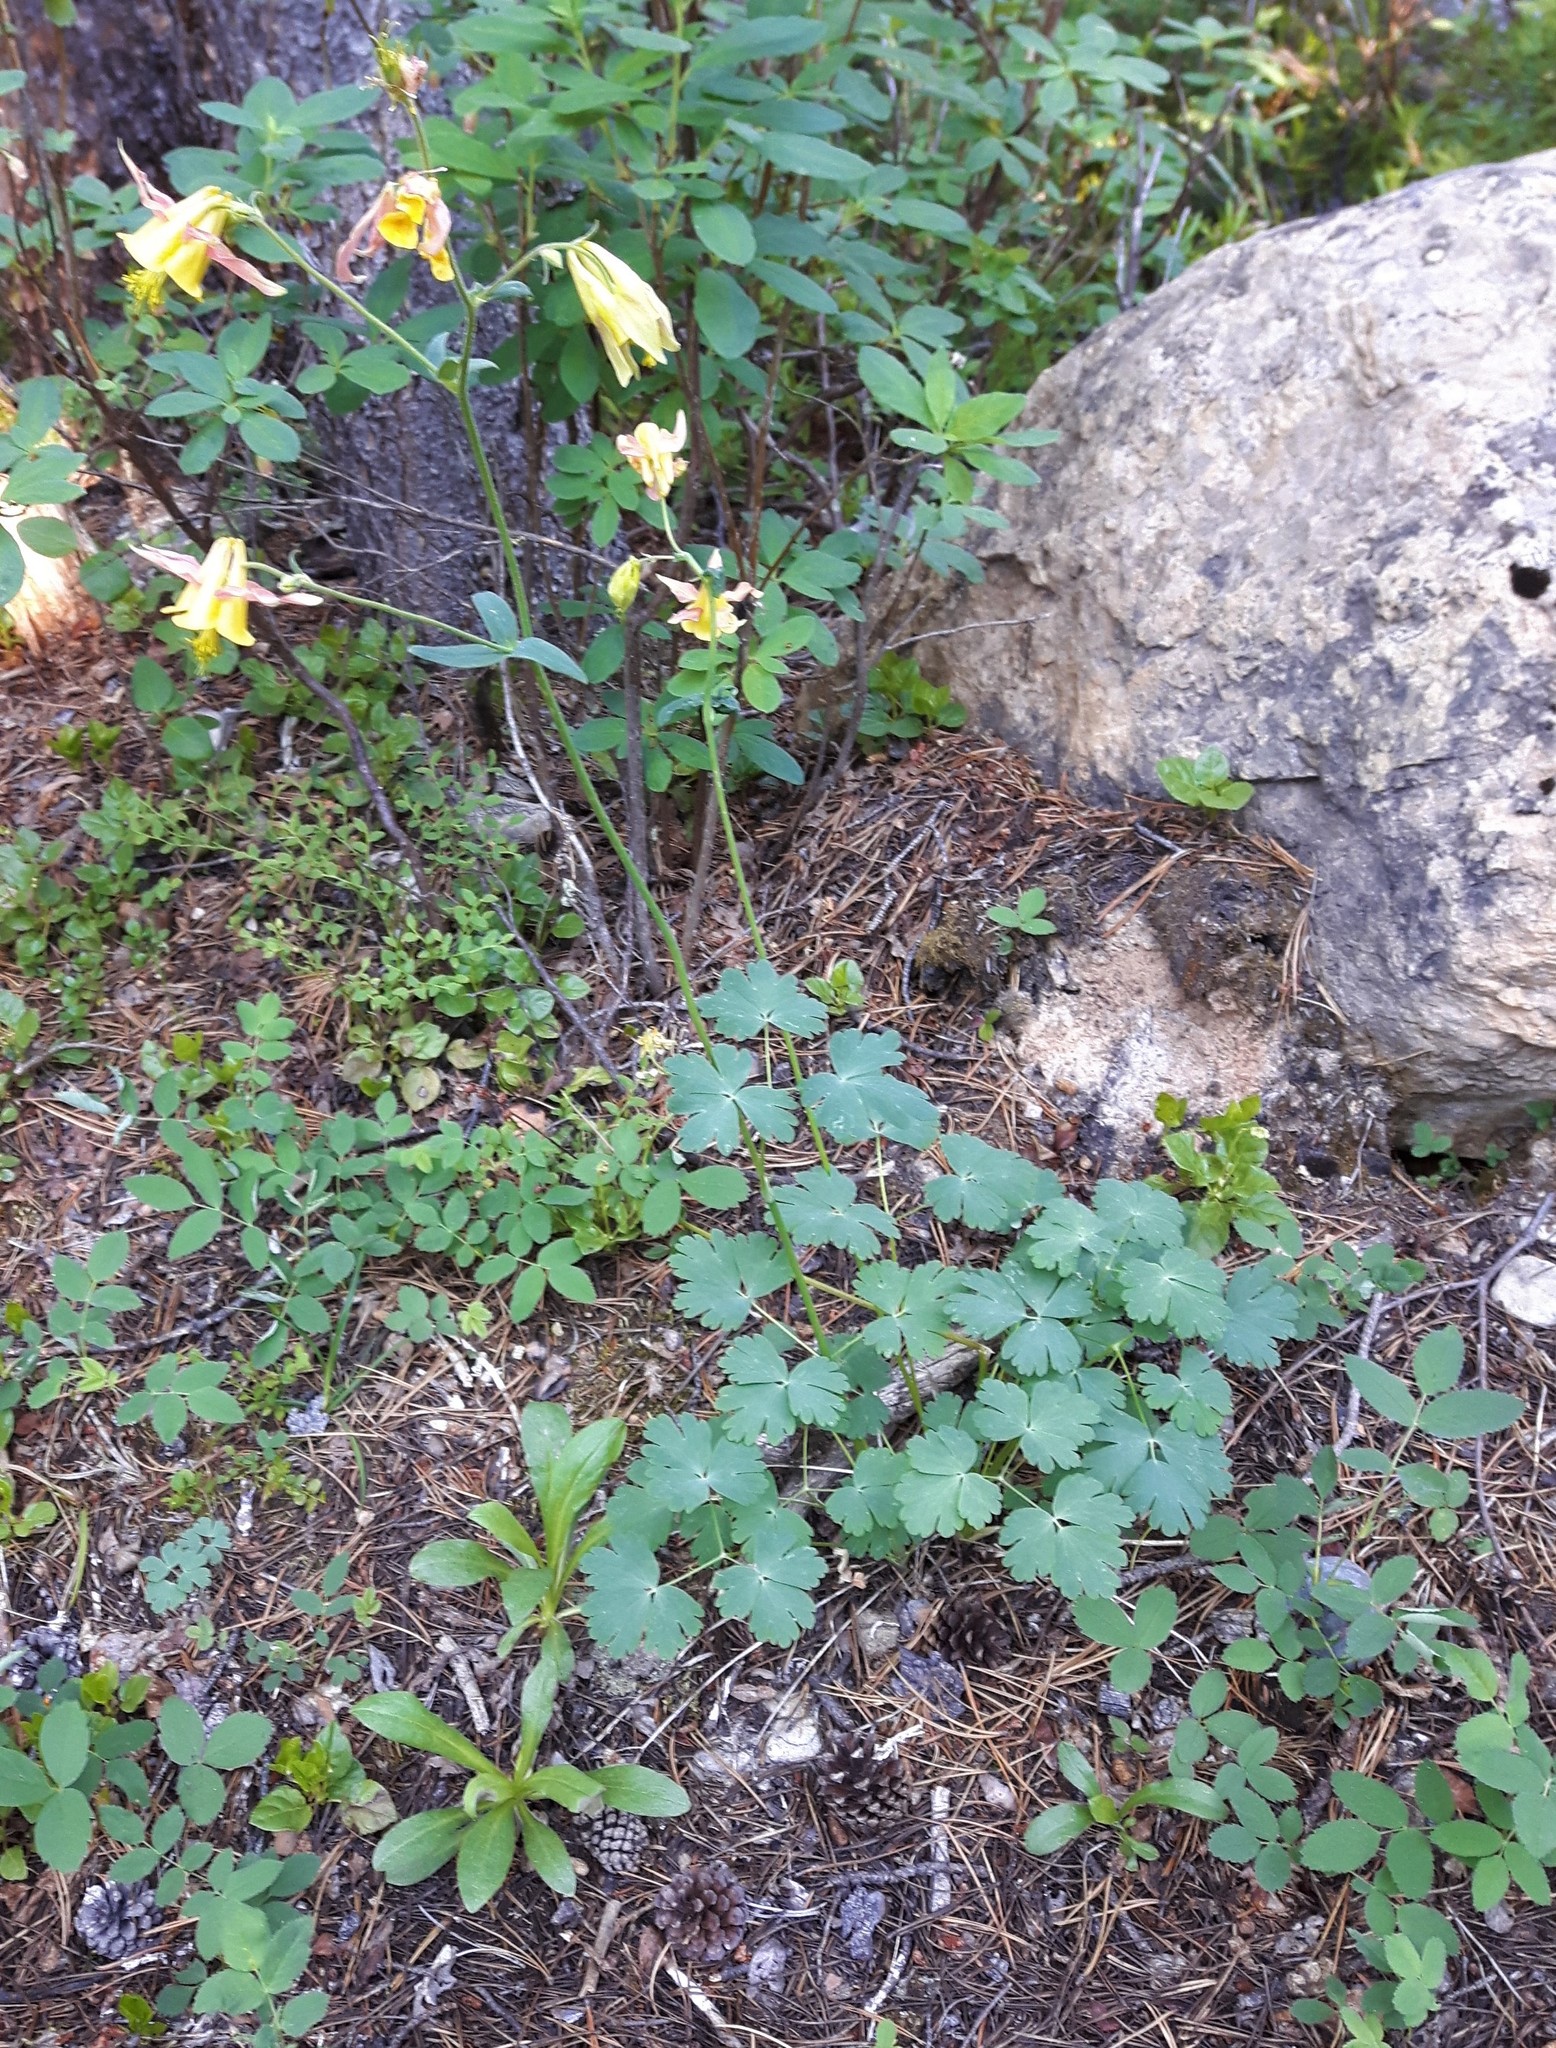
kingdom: Plantae
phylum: Tracheophyta
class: Magnoliopsida
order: Ranunculales
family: Ranunculaceae
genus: Aquilegia
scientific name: Aquilegia flavescens
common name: Yellow columbine
